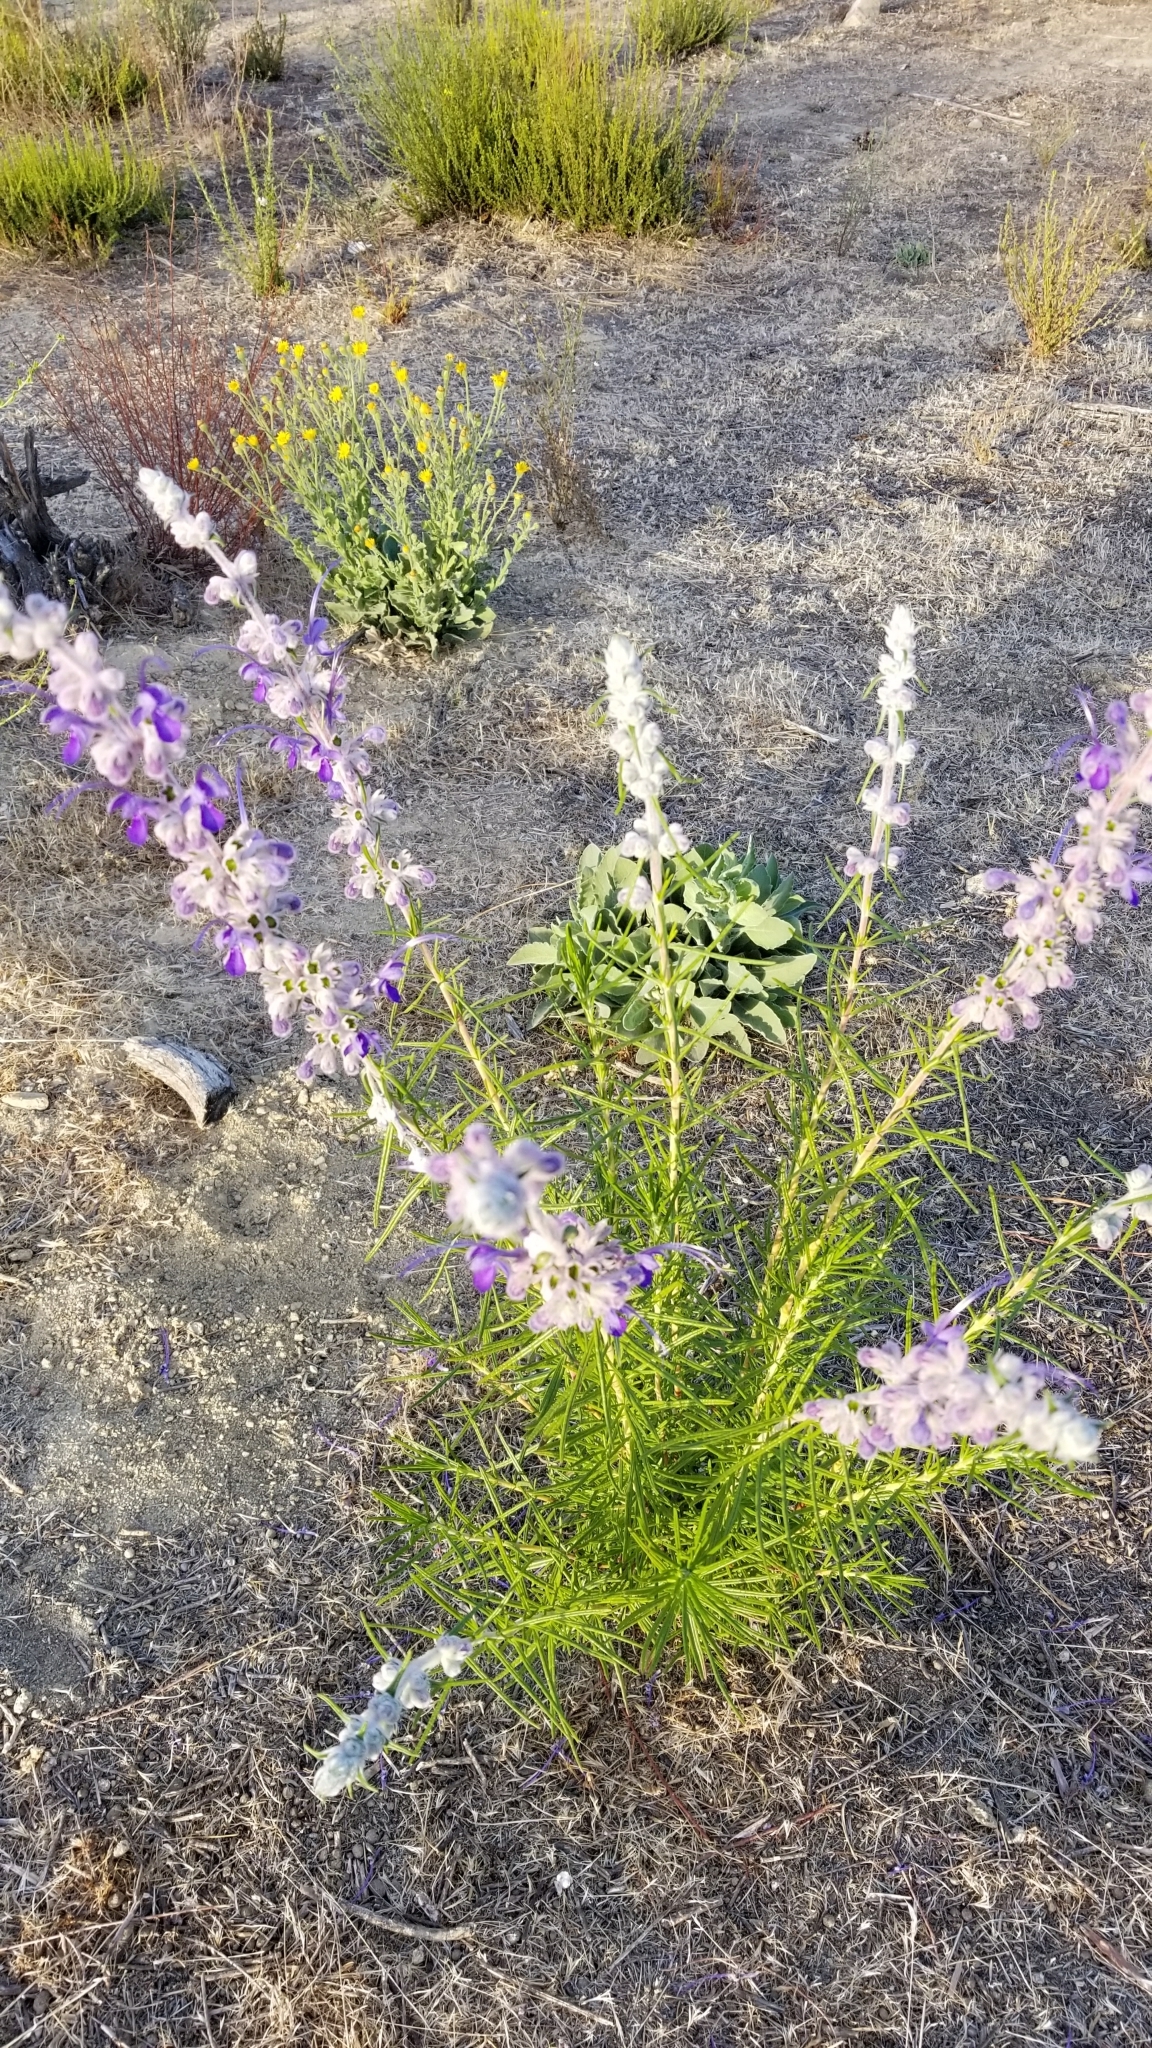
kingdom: Plantae
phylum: Tracheophyta
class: Magnoliopsida
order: Lamiales
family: Lamiaceae
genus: Trichostema
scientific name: Trichostema lanatum
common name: Woolly bluecurls
